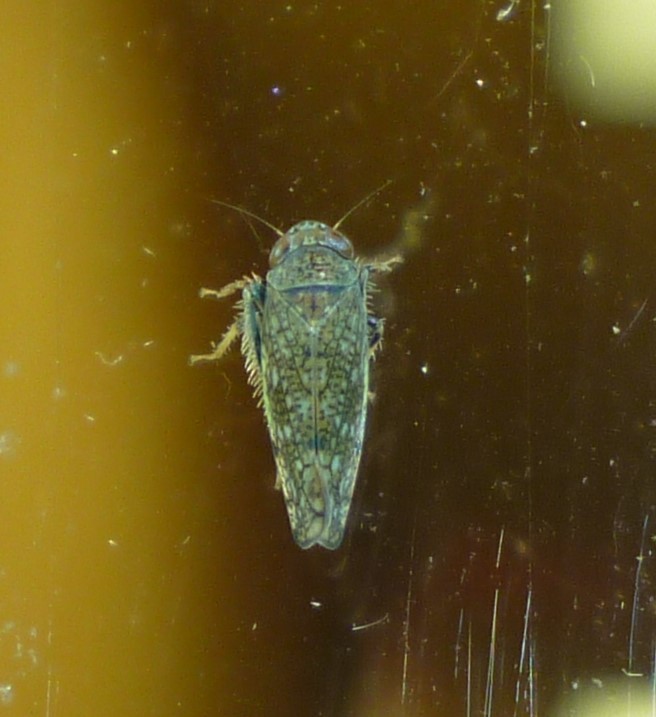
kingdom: Animalia
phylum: Arthropoda
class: Insecta
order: Hemiptera
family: Cicadellidae
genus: Orientus
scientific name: Orientus ishidae
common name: Japanese leafhopper
